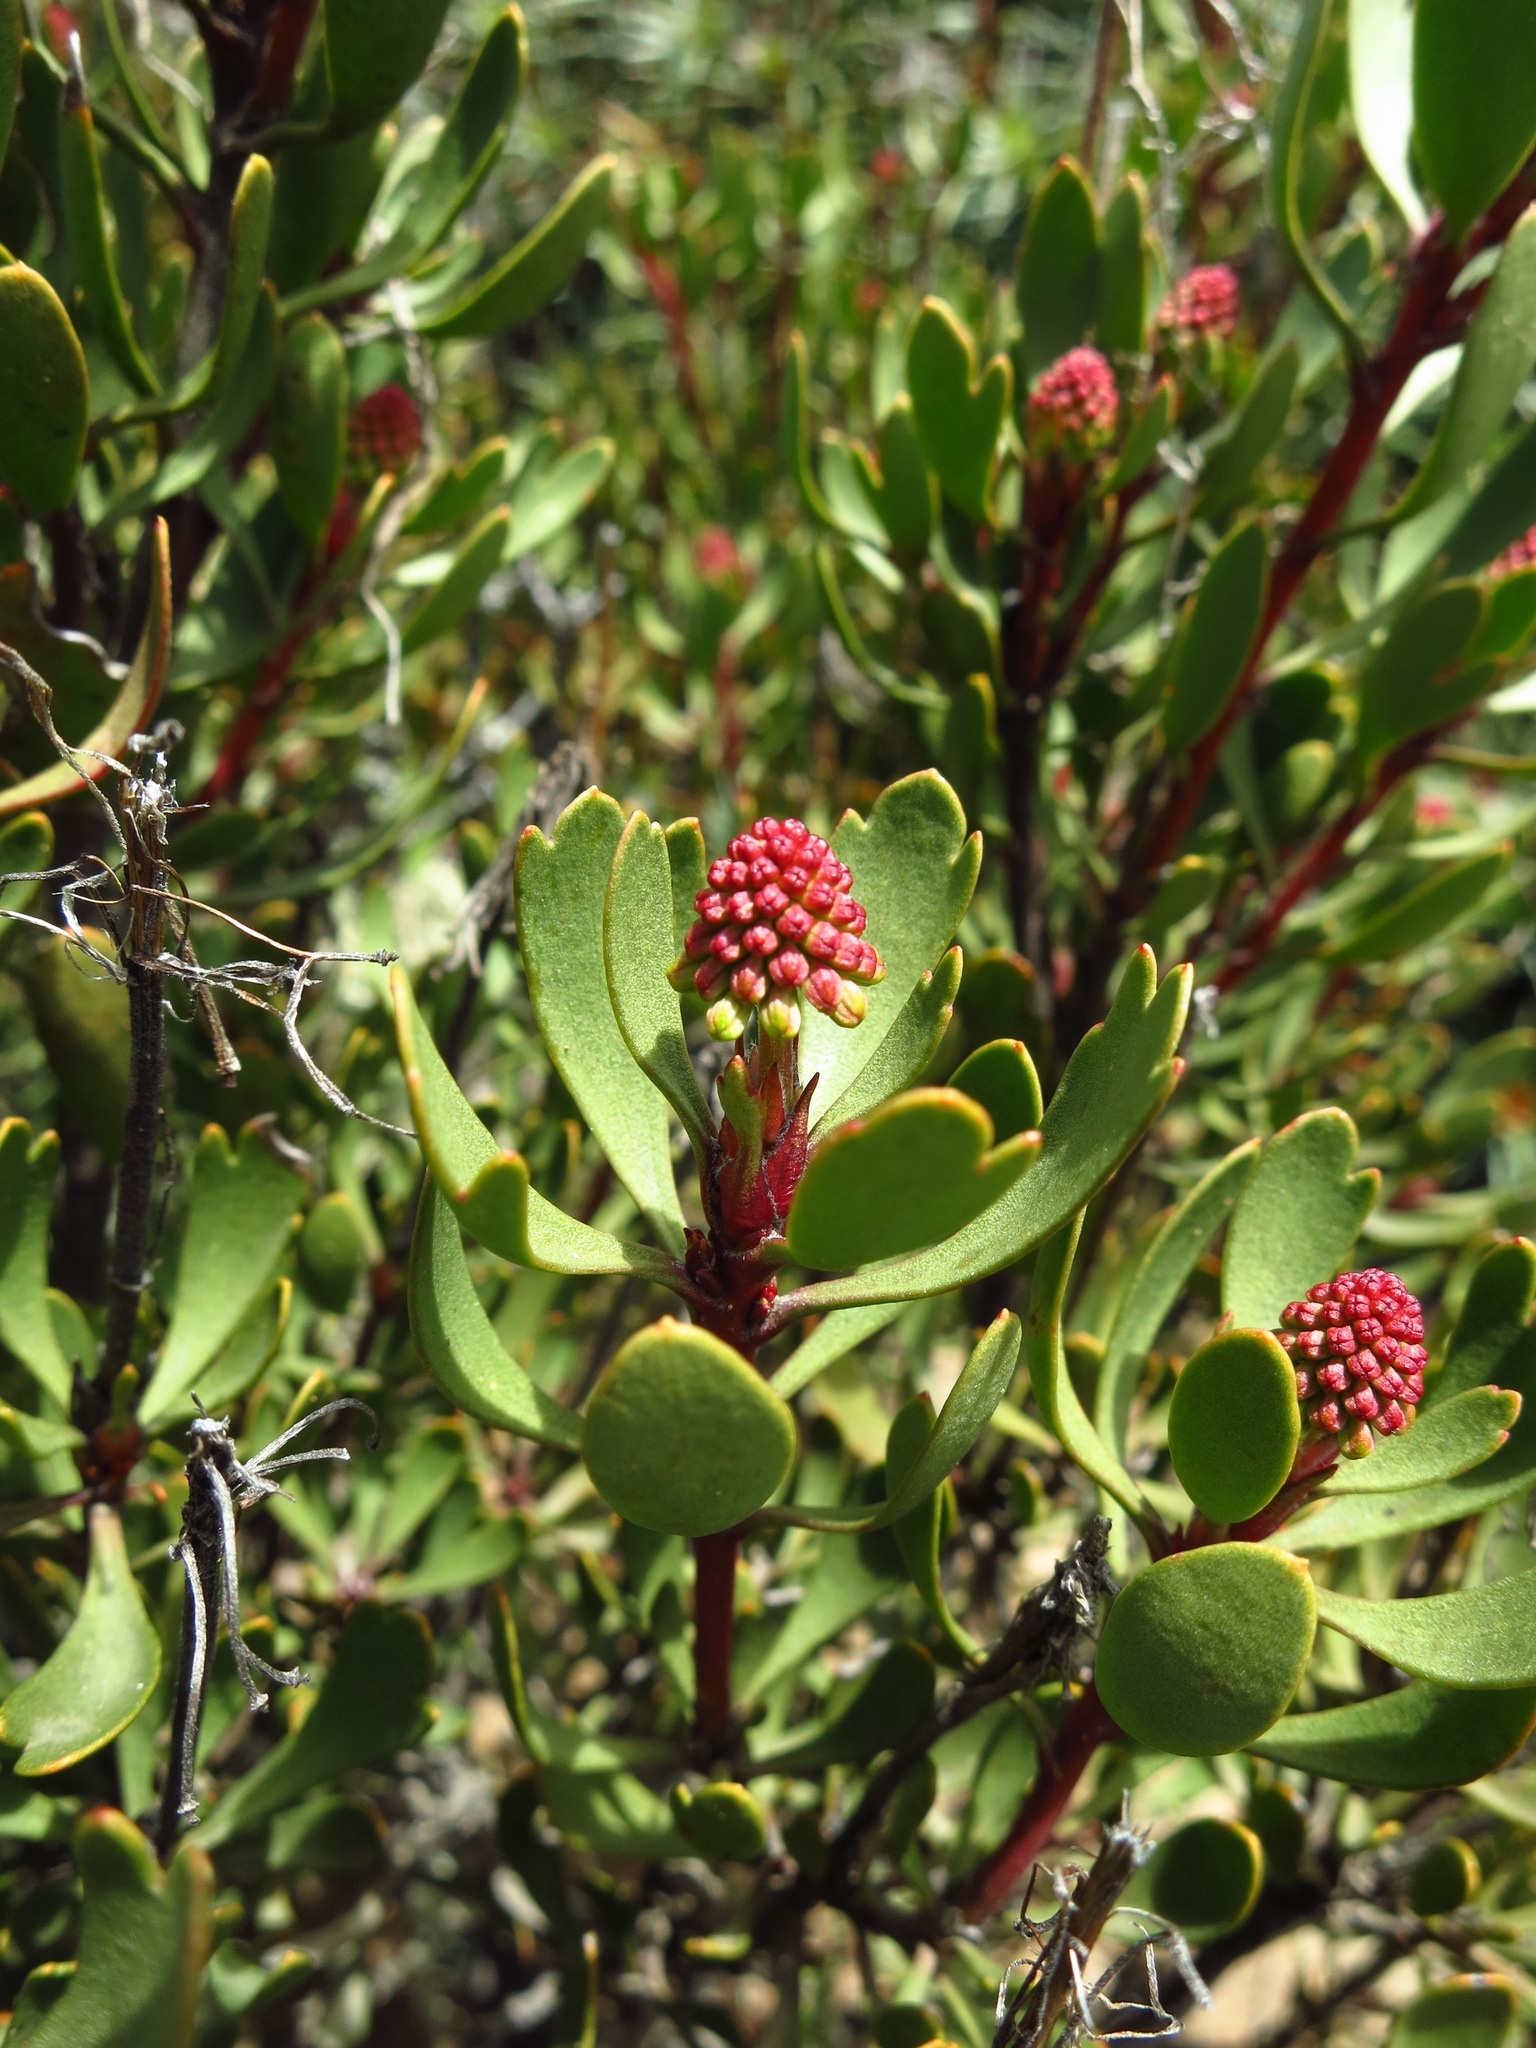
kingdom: Plantae
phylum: Tracheophyta
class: Magnoliopsida
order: Proteales
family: Proteaceae
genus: Bellendena
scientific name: Bellendena montana
